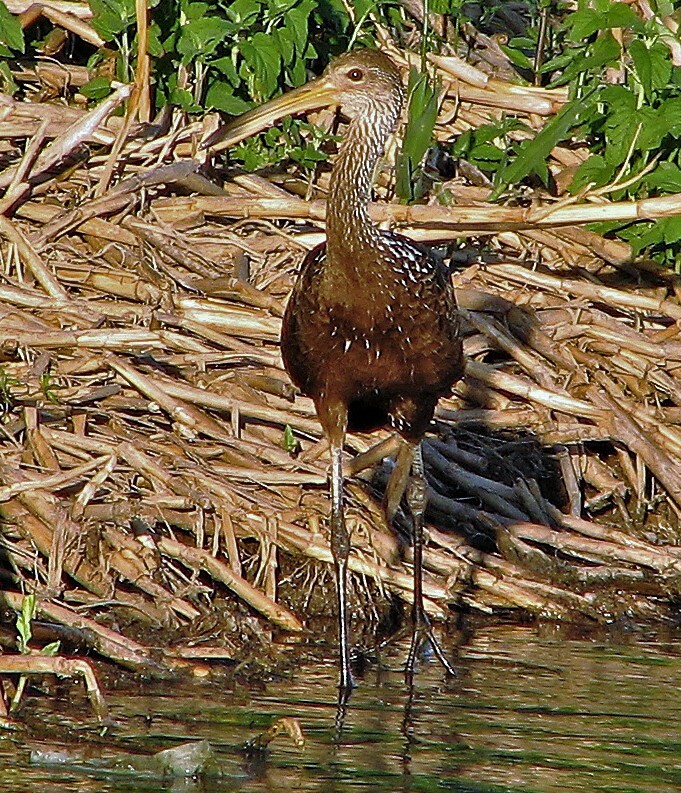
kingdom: Animalia
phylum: Chordata
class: Aves
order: Gruiformes
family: Aramidae
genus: Aramus
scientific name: Aramus guarauna
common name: Limpkin
